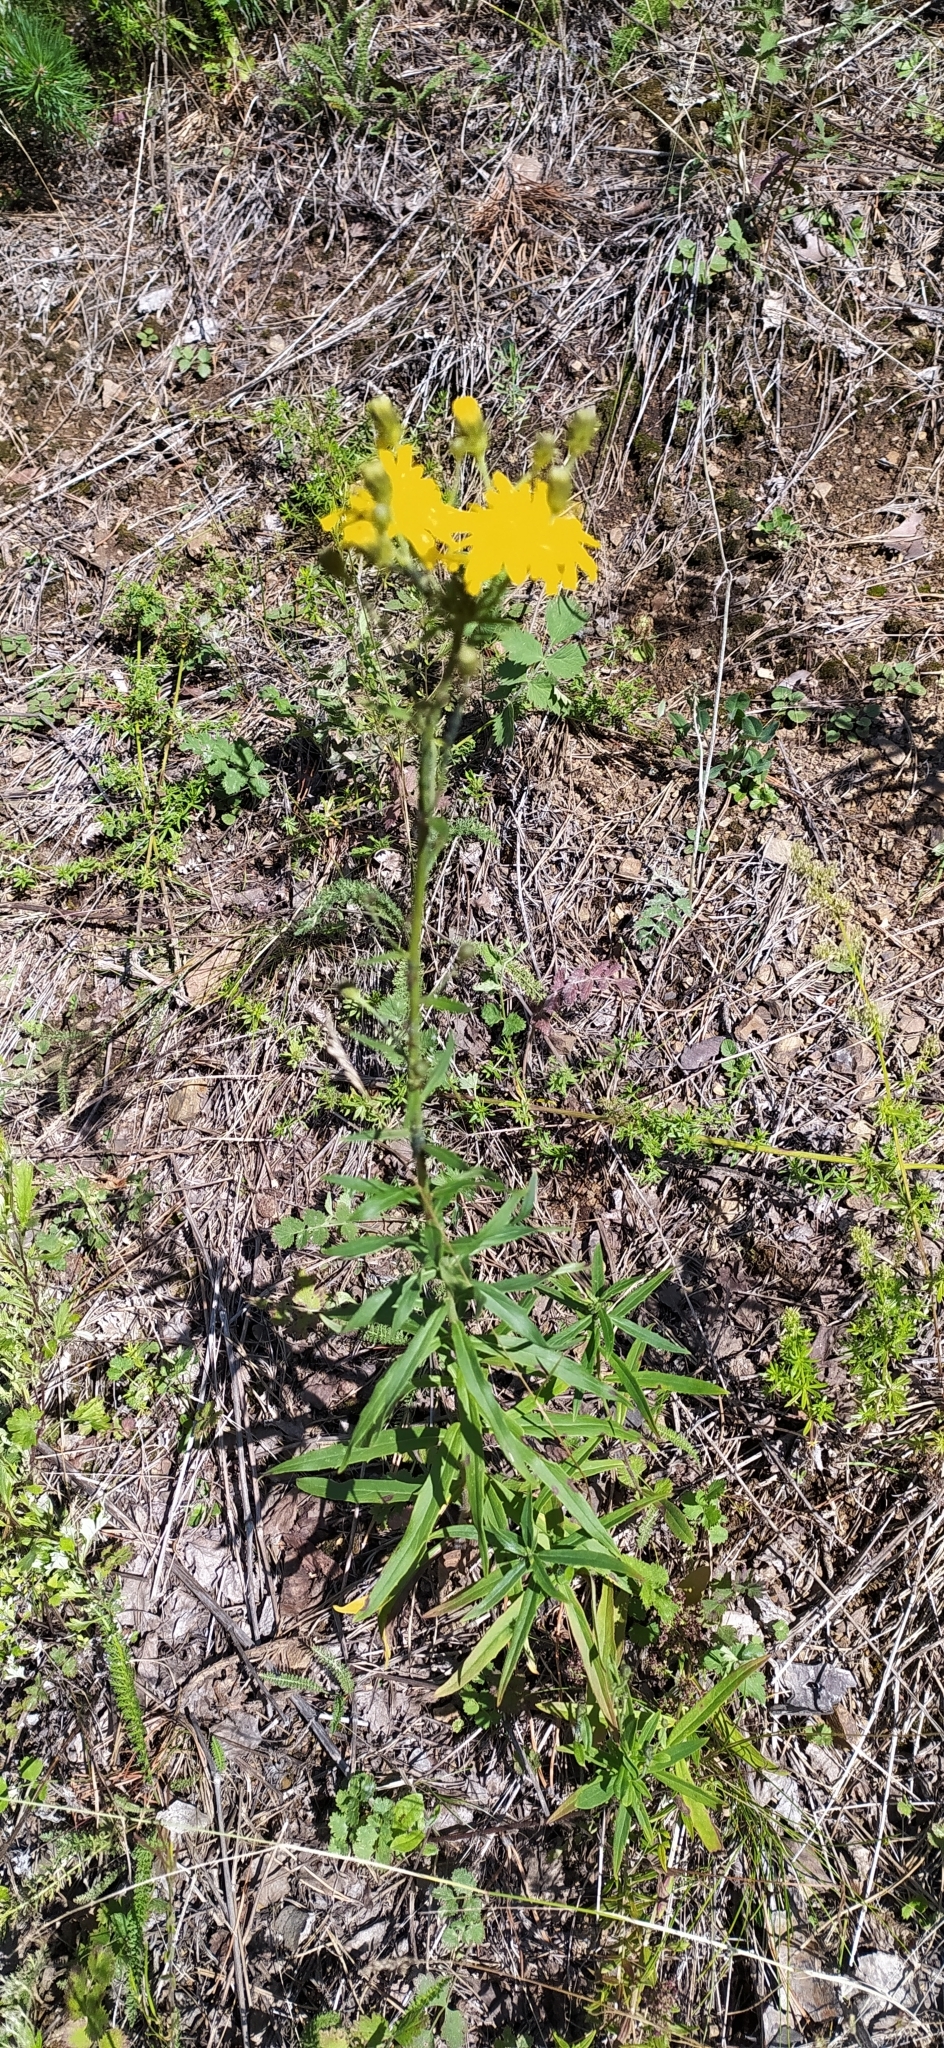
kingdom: Plantae
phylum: Tracheophyta
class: Magnoliopsida
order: Asterales
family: Asteraceae
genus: Hieracium
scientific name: Hieracium umbellatum
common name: Northern hawkweed
